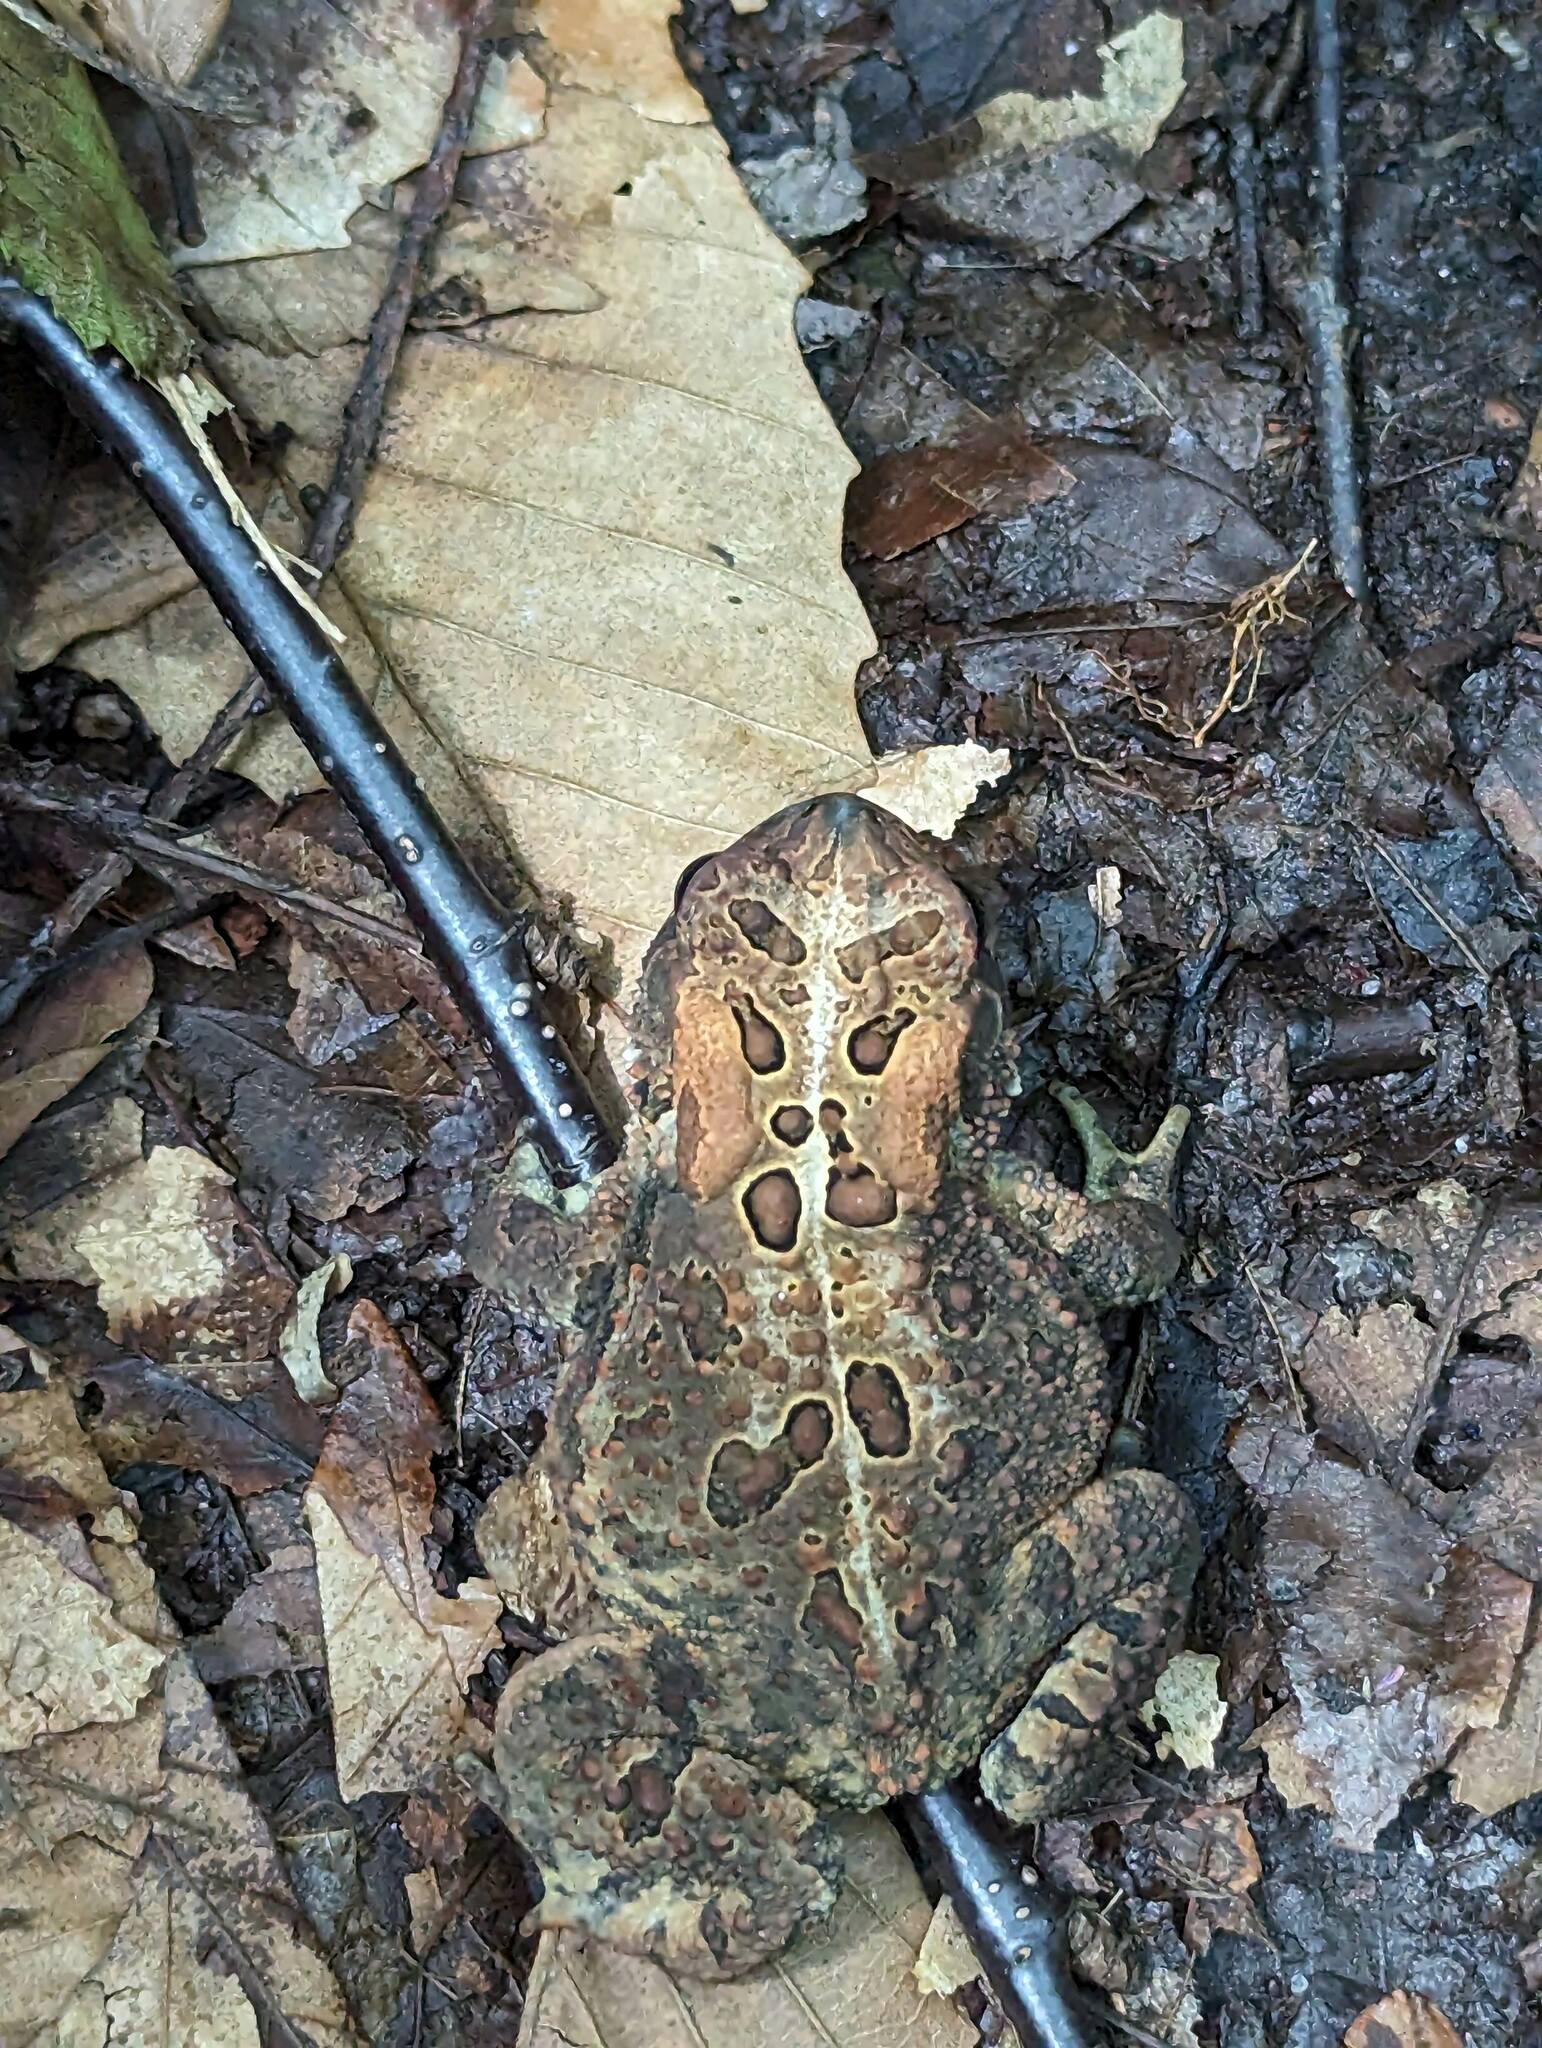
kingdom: Animalia
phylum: Chordata
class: Amphibia
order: Anura
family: Bufonidae
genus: Anaxyrus
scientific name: Anaxyrus americanus
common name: American toad
